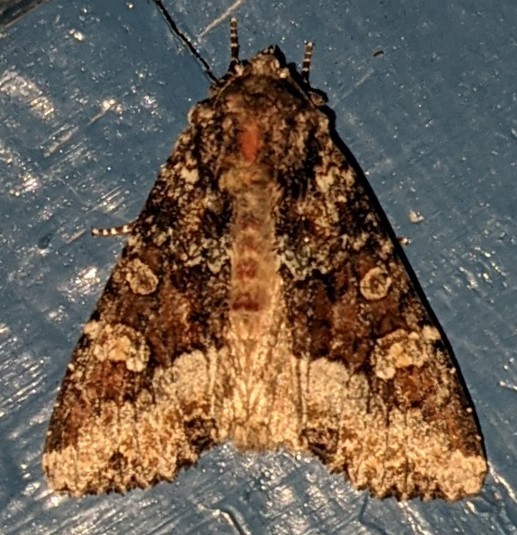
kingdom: Animalia
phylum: Arthropoda
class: Insecta
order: Lepidoptera
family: Noctuidae
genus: Apamea
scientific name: Apamea amputatrix
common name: Yellow-headed cutworm moth
